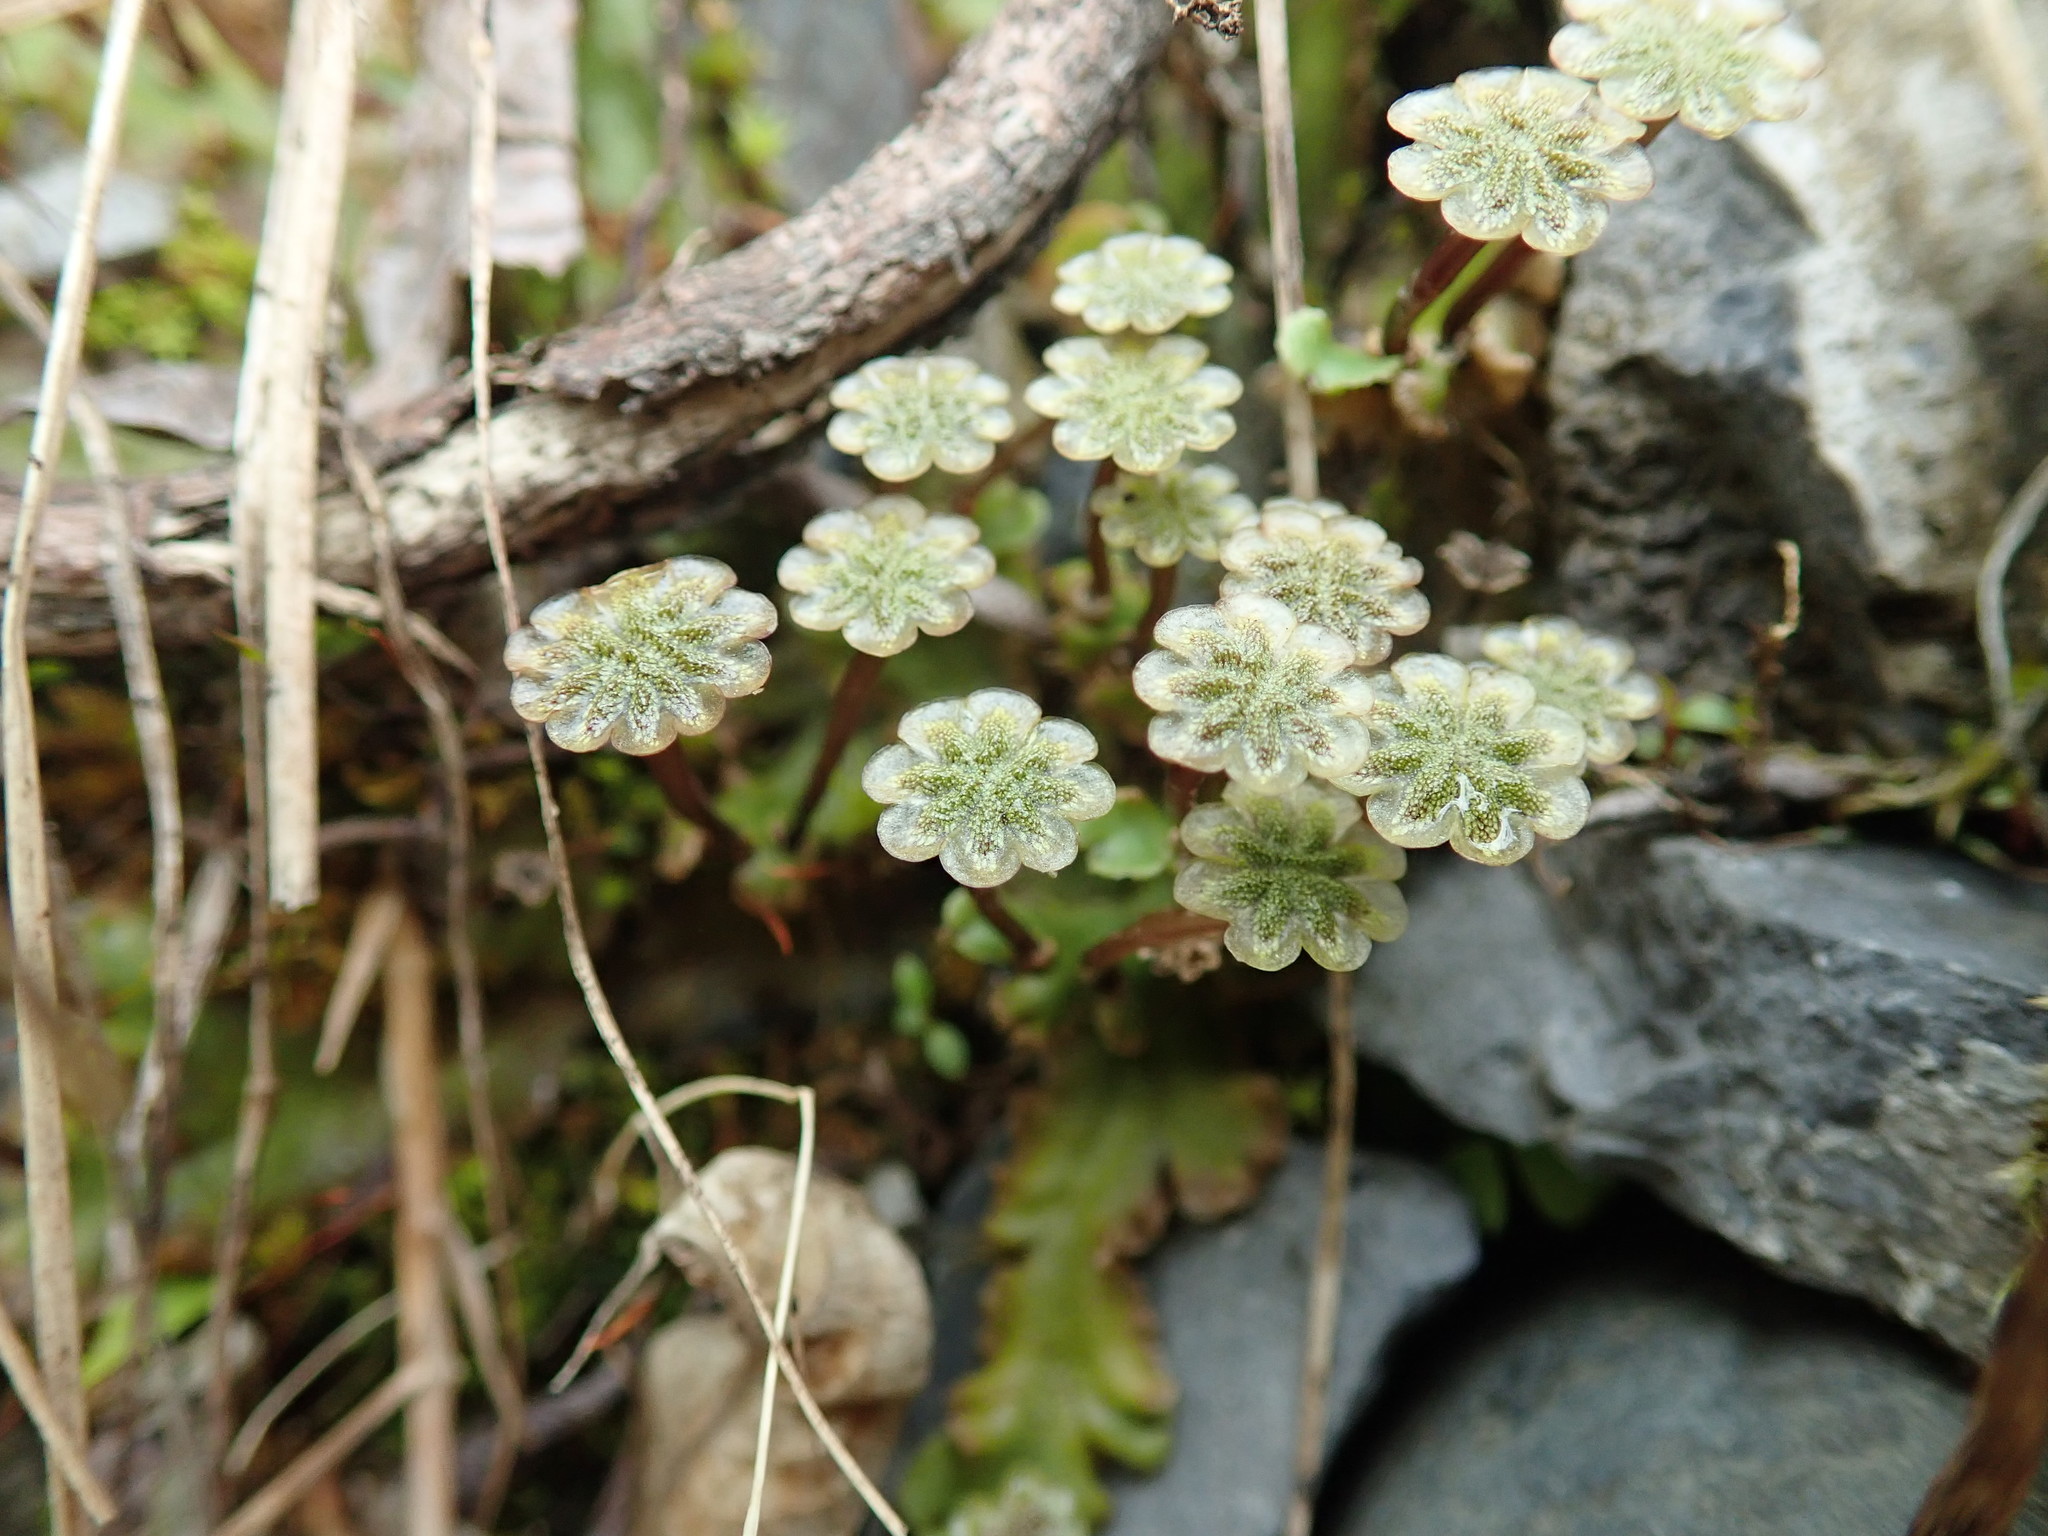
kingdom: Plantae
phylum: Marchantiophyta
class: Marchantiopsida
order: Marchantiales
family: Marchantiaceae
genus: Marchantia
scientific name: Marchantia polymorpha
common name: Common liverwort
